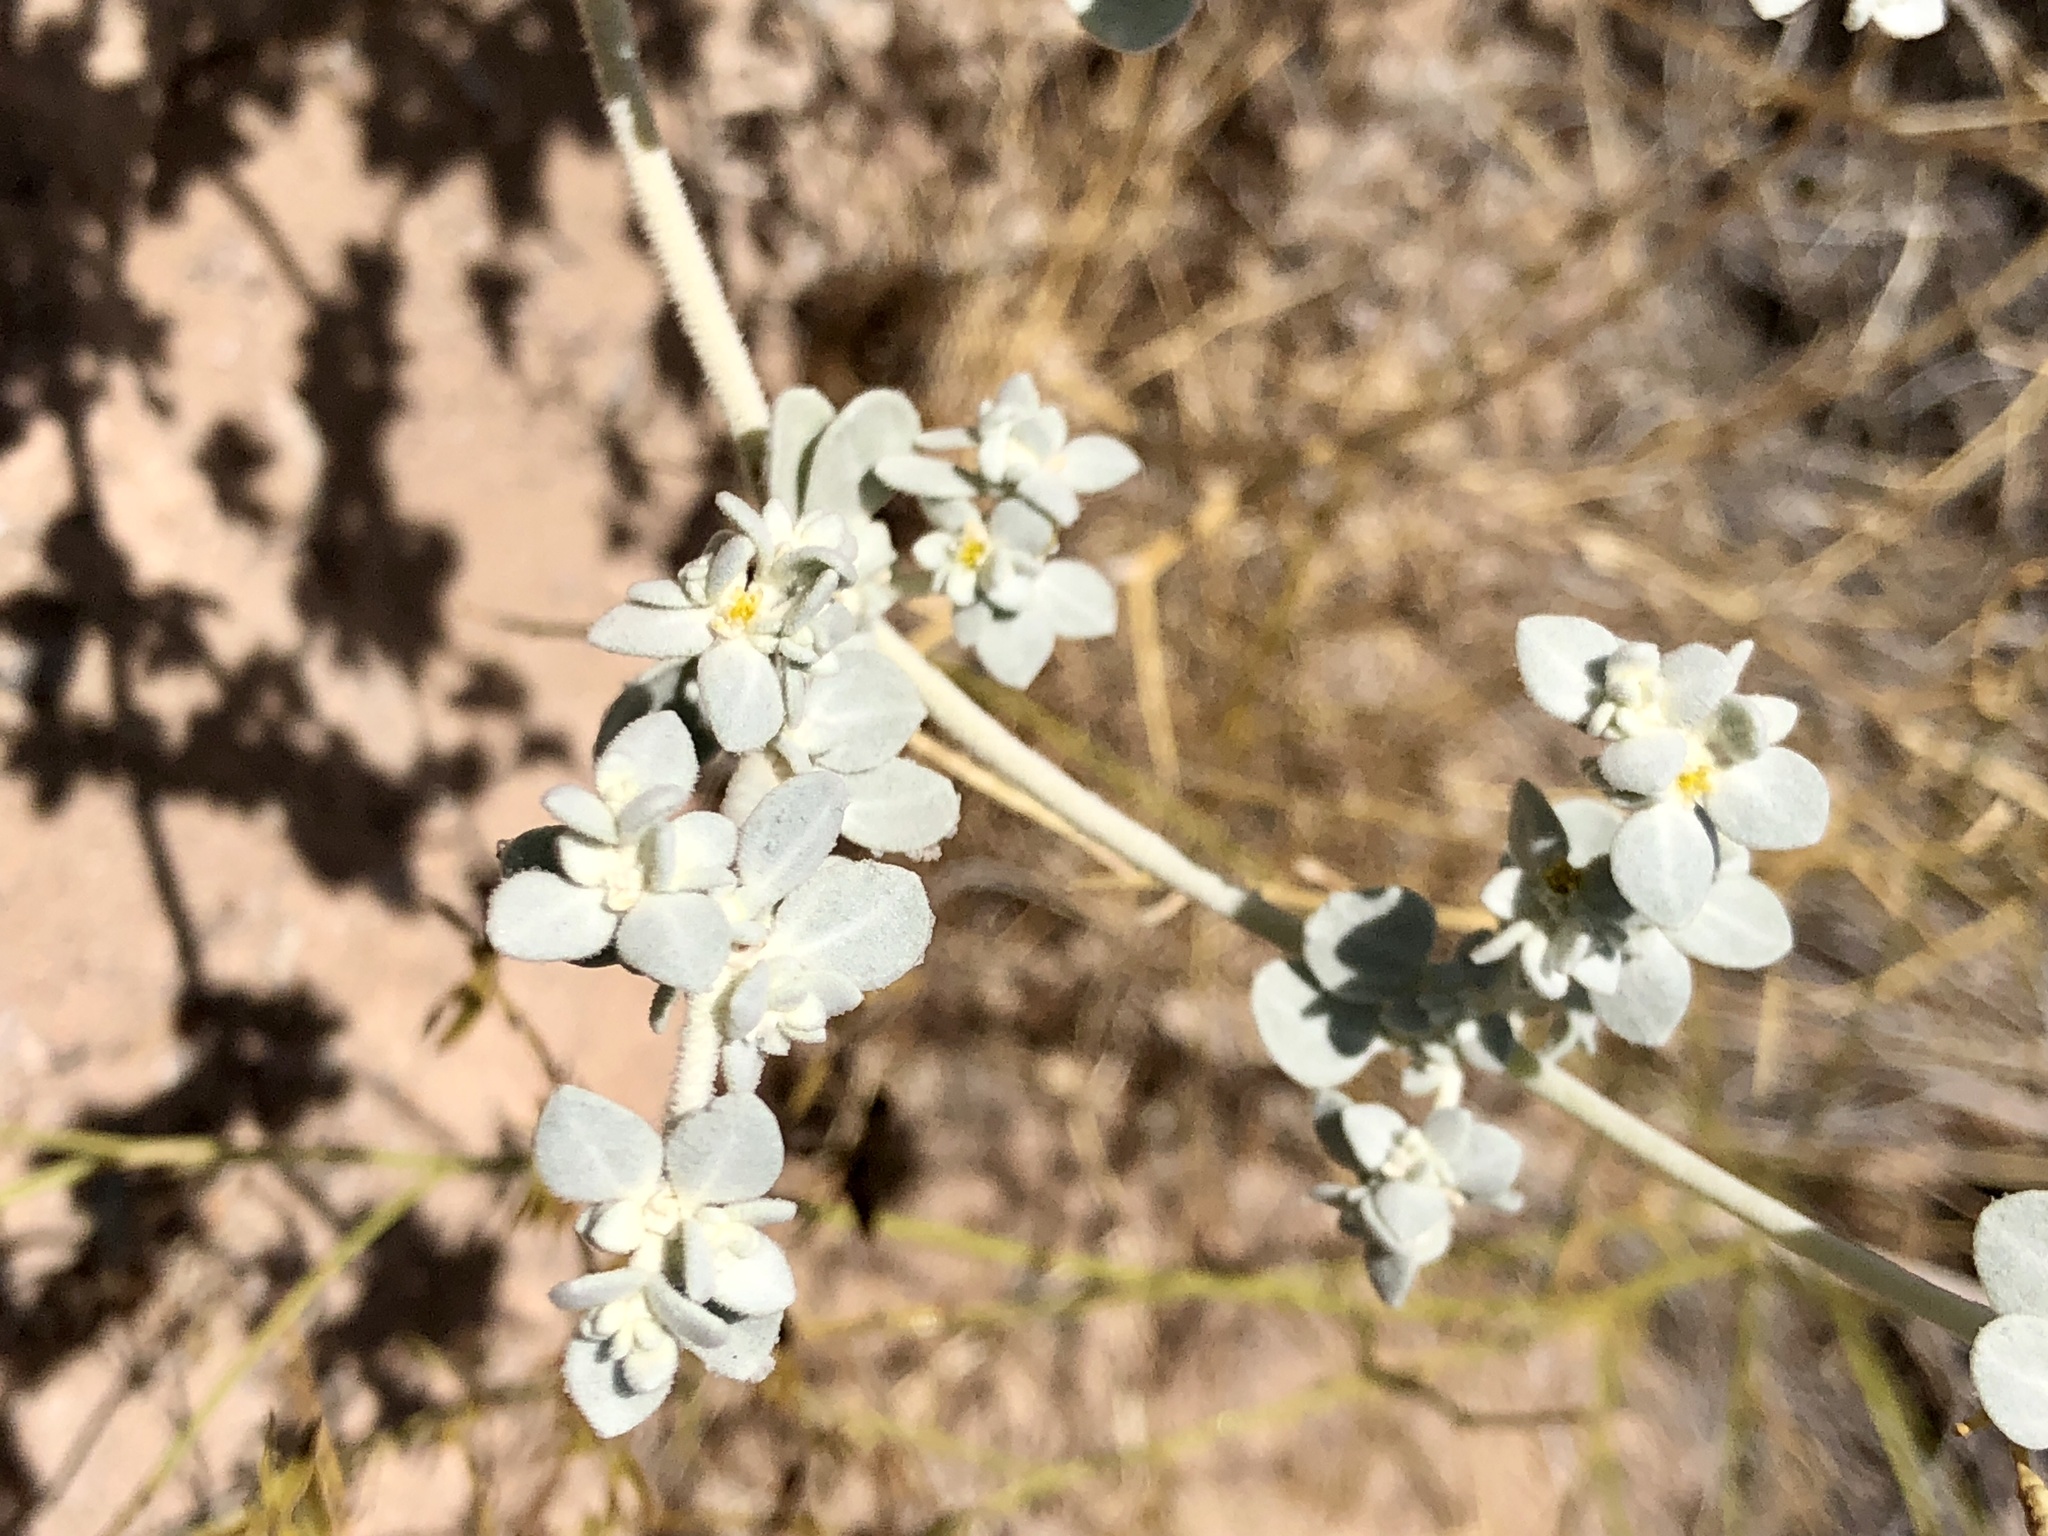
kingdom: Plantae
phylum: Tracheophyta
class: Magnoliopsida
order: Caryophyllales
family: Amaranthaceae
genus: Tidestromia
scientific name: Tidestromia suffruticosa
